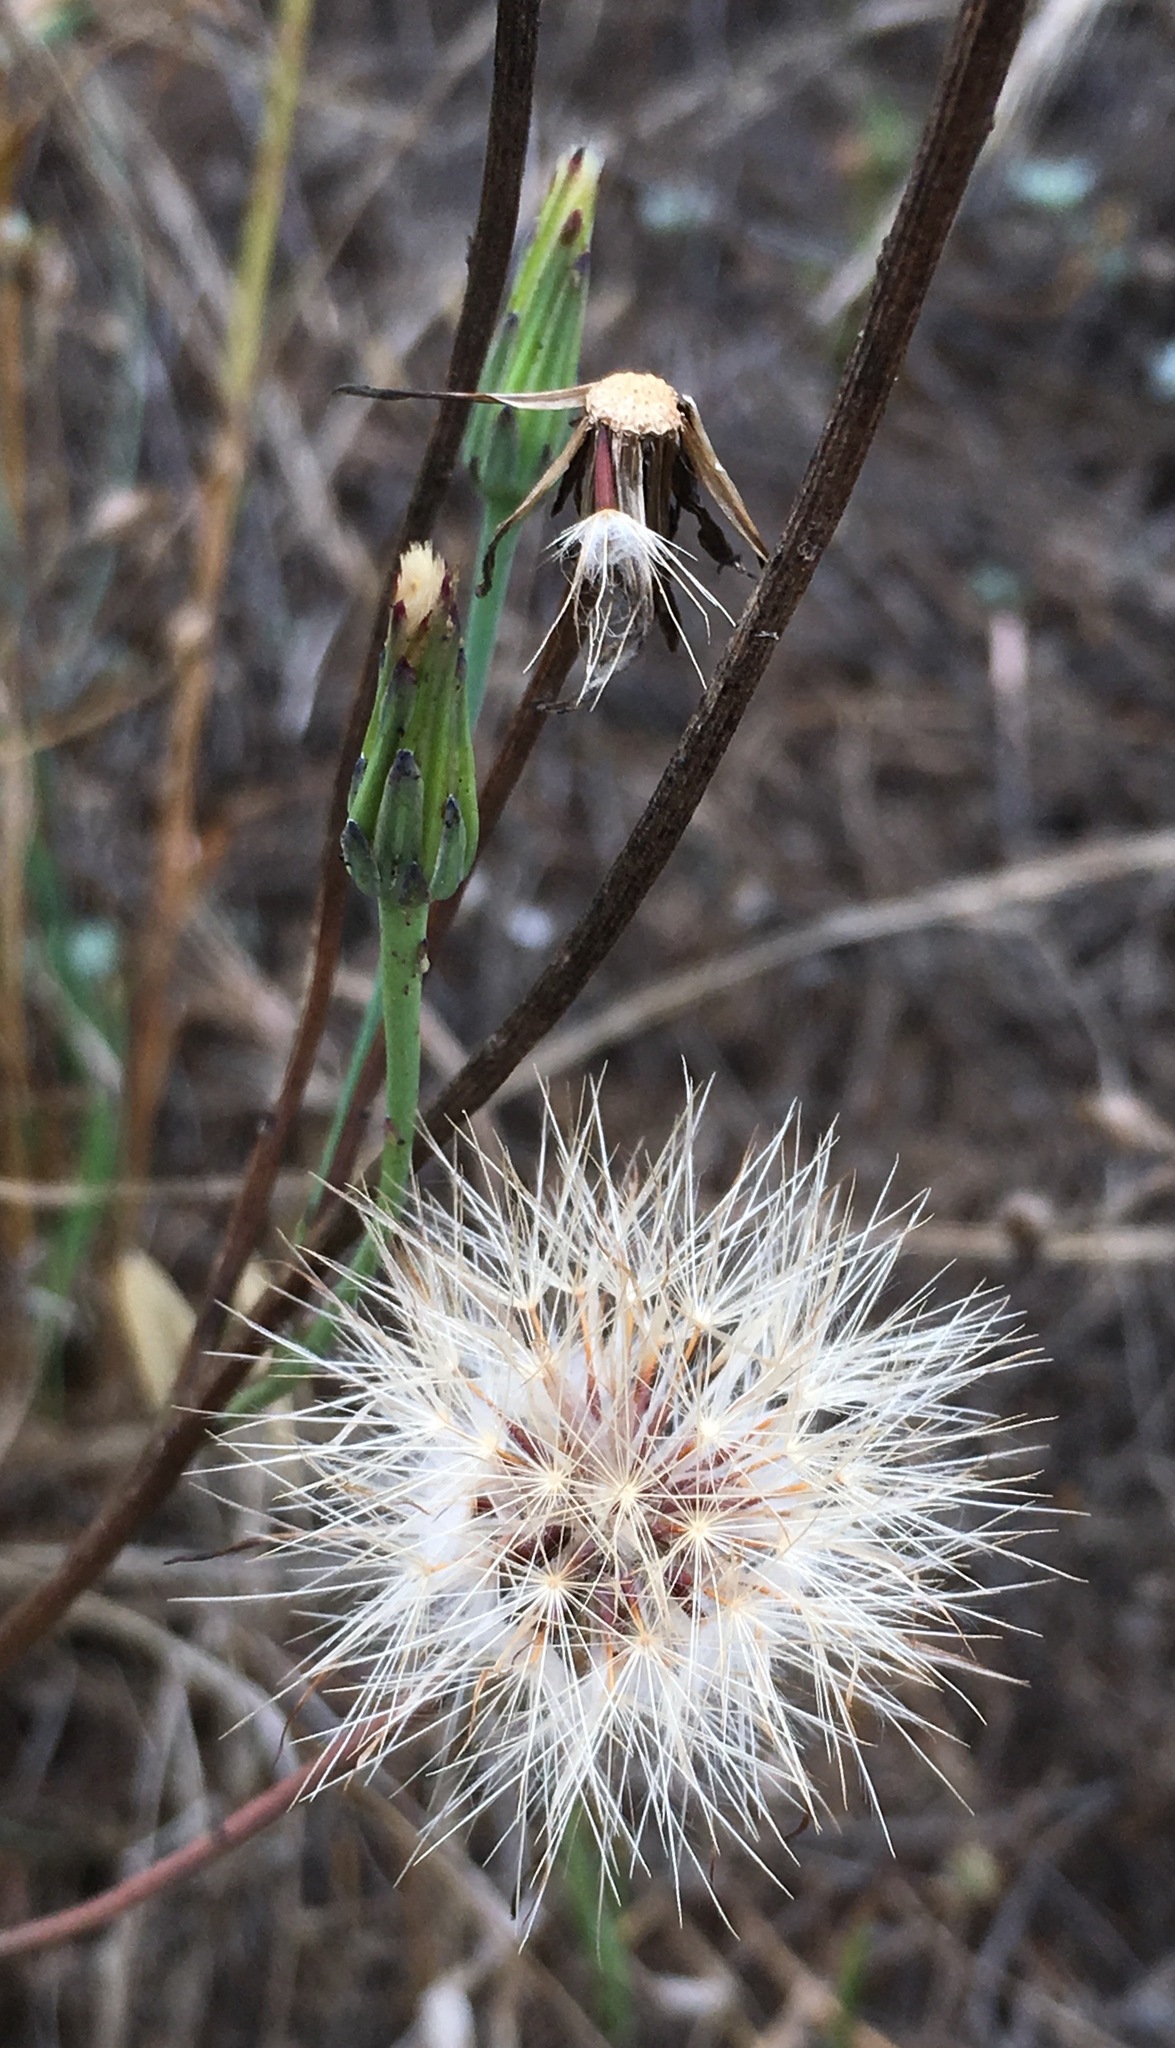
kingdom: Plantae
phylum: Tracheophyta
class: Magnoliopsida
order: Asterales
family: Asteraceae
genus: Hypochaeris
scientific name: Hypochaeris glabra
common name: Smooth catsear
